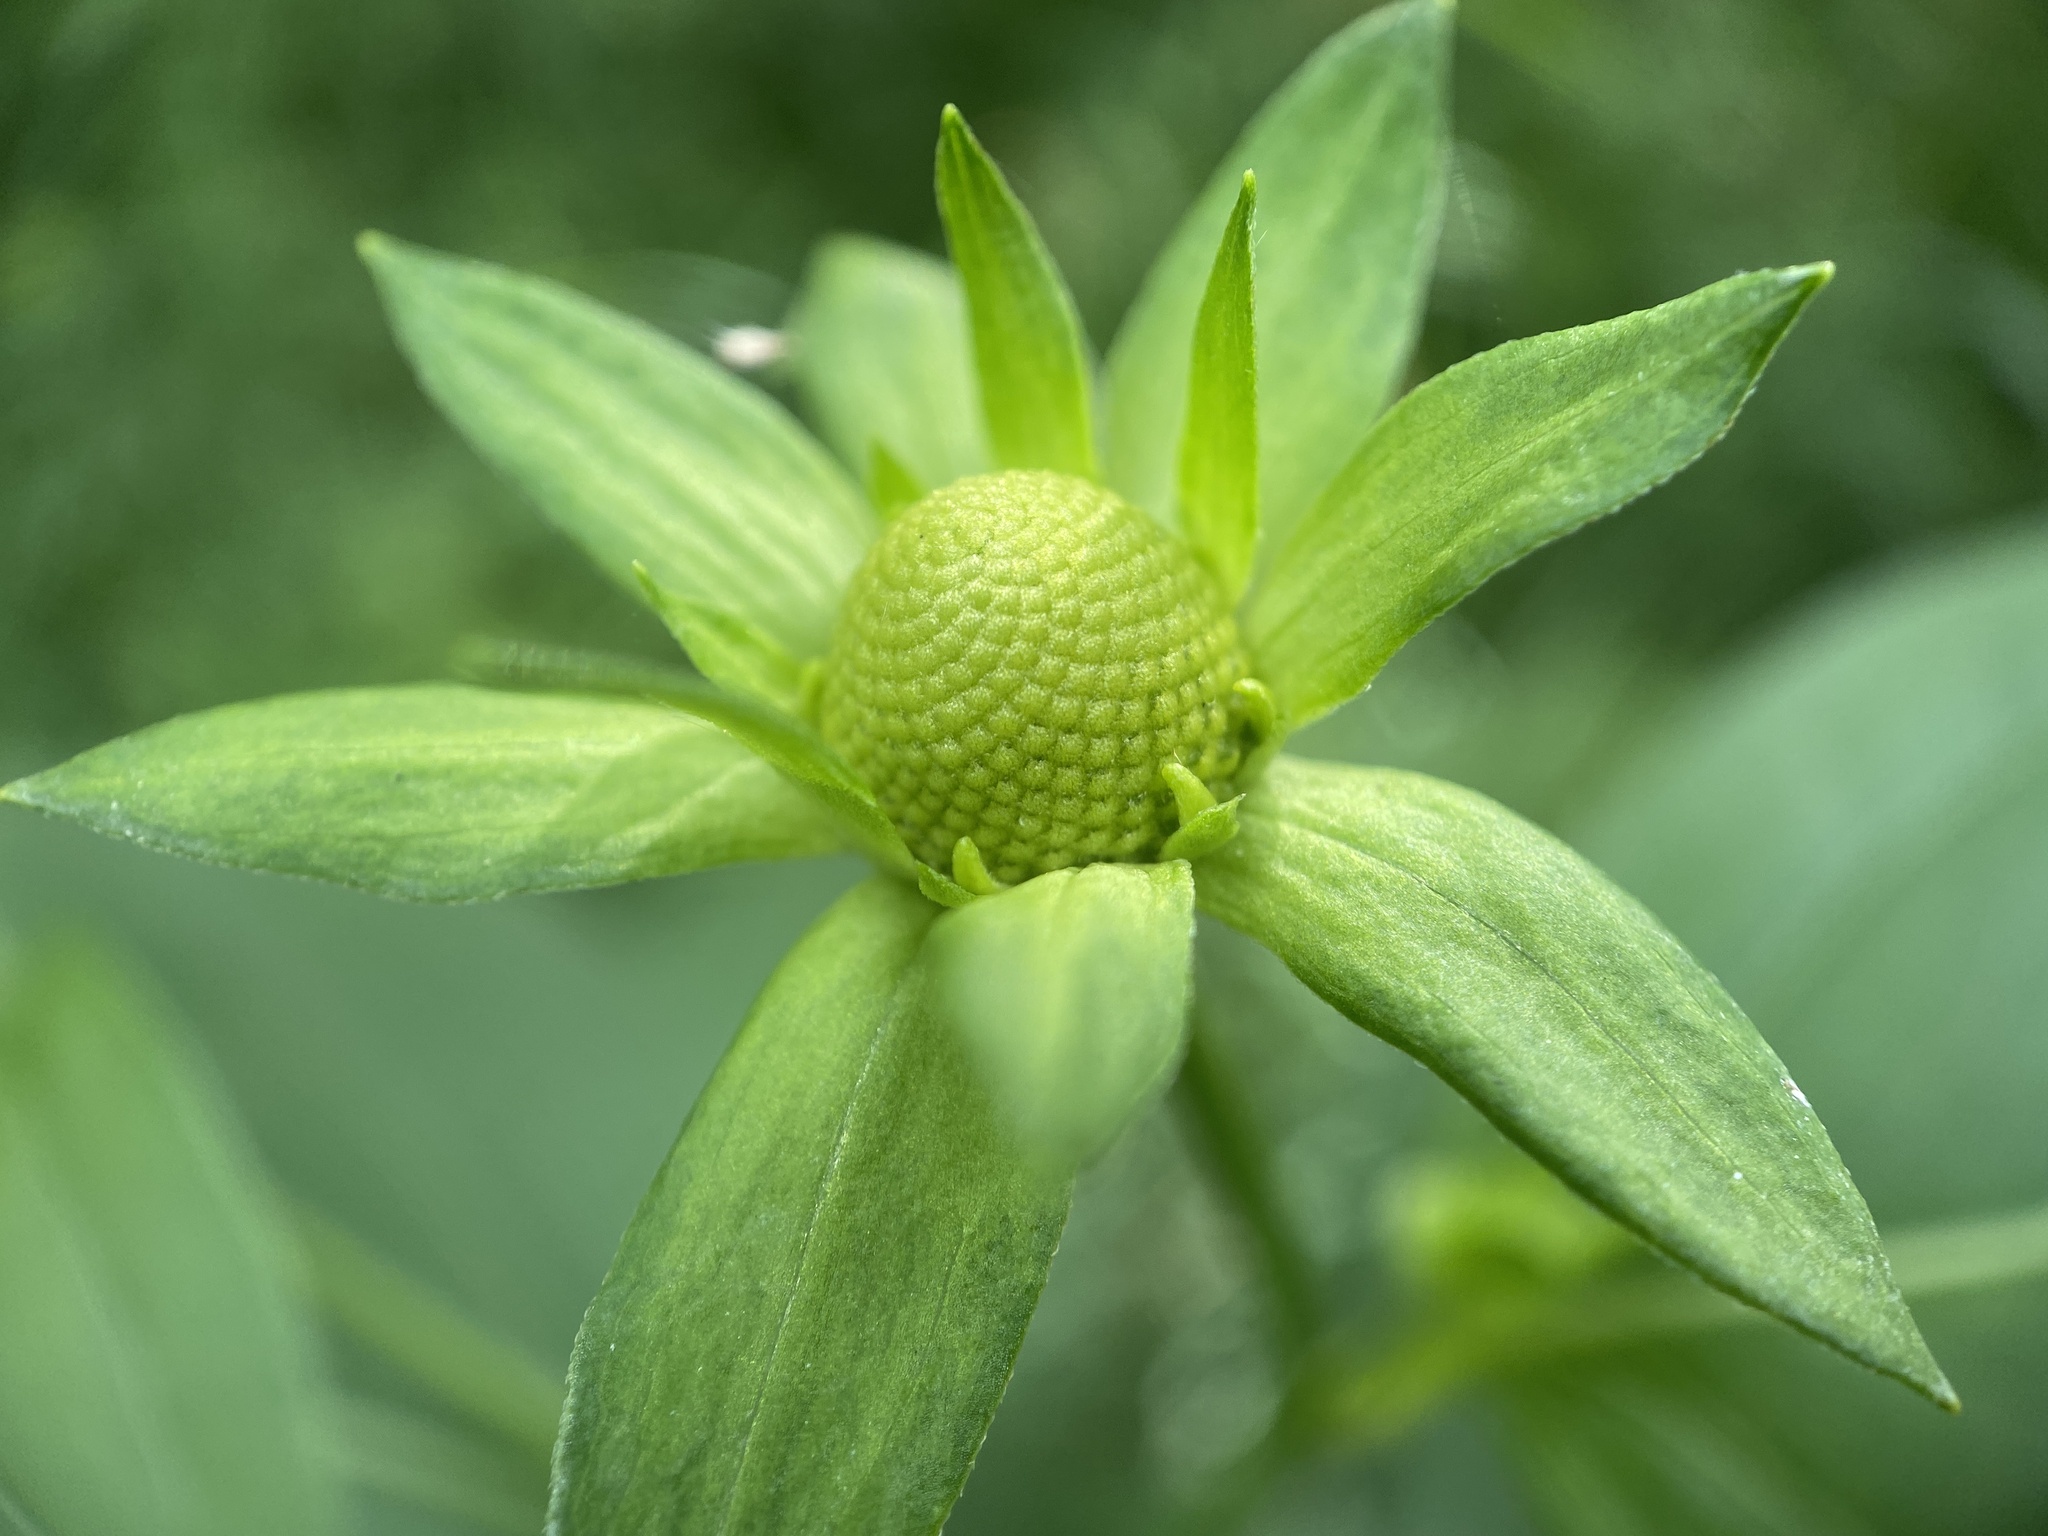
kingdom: Plantae
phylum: Tracheophyta
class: Magnoliopsida
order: Asterales
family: Asteraceae
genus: Rudbeckia
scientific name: Rudbeckia laciniata
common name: Coneflower
